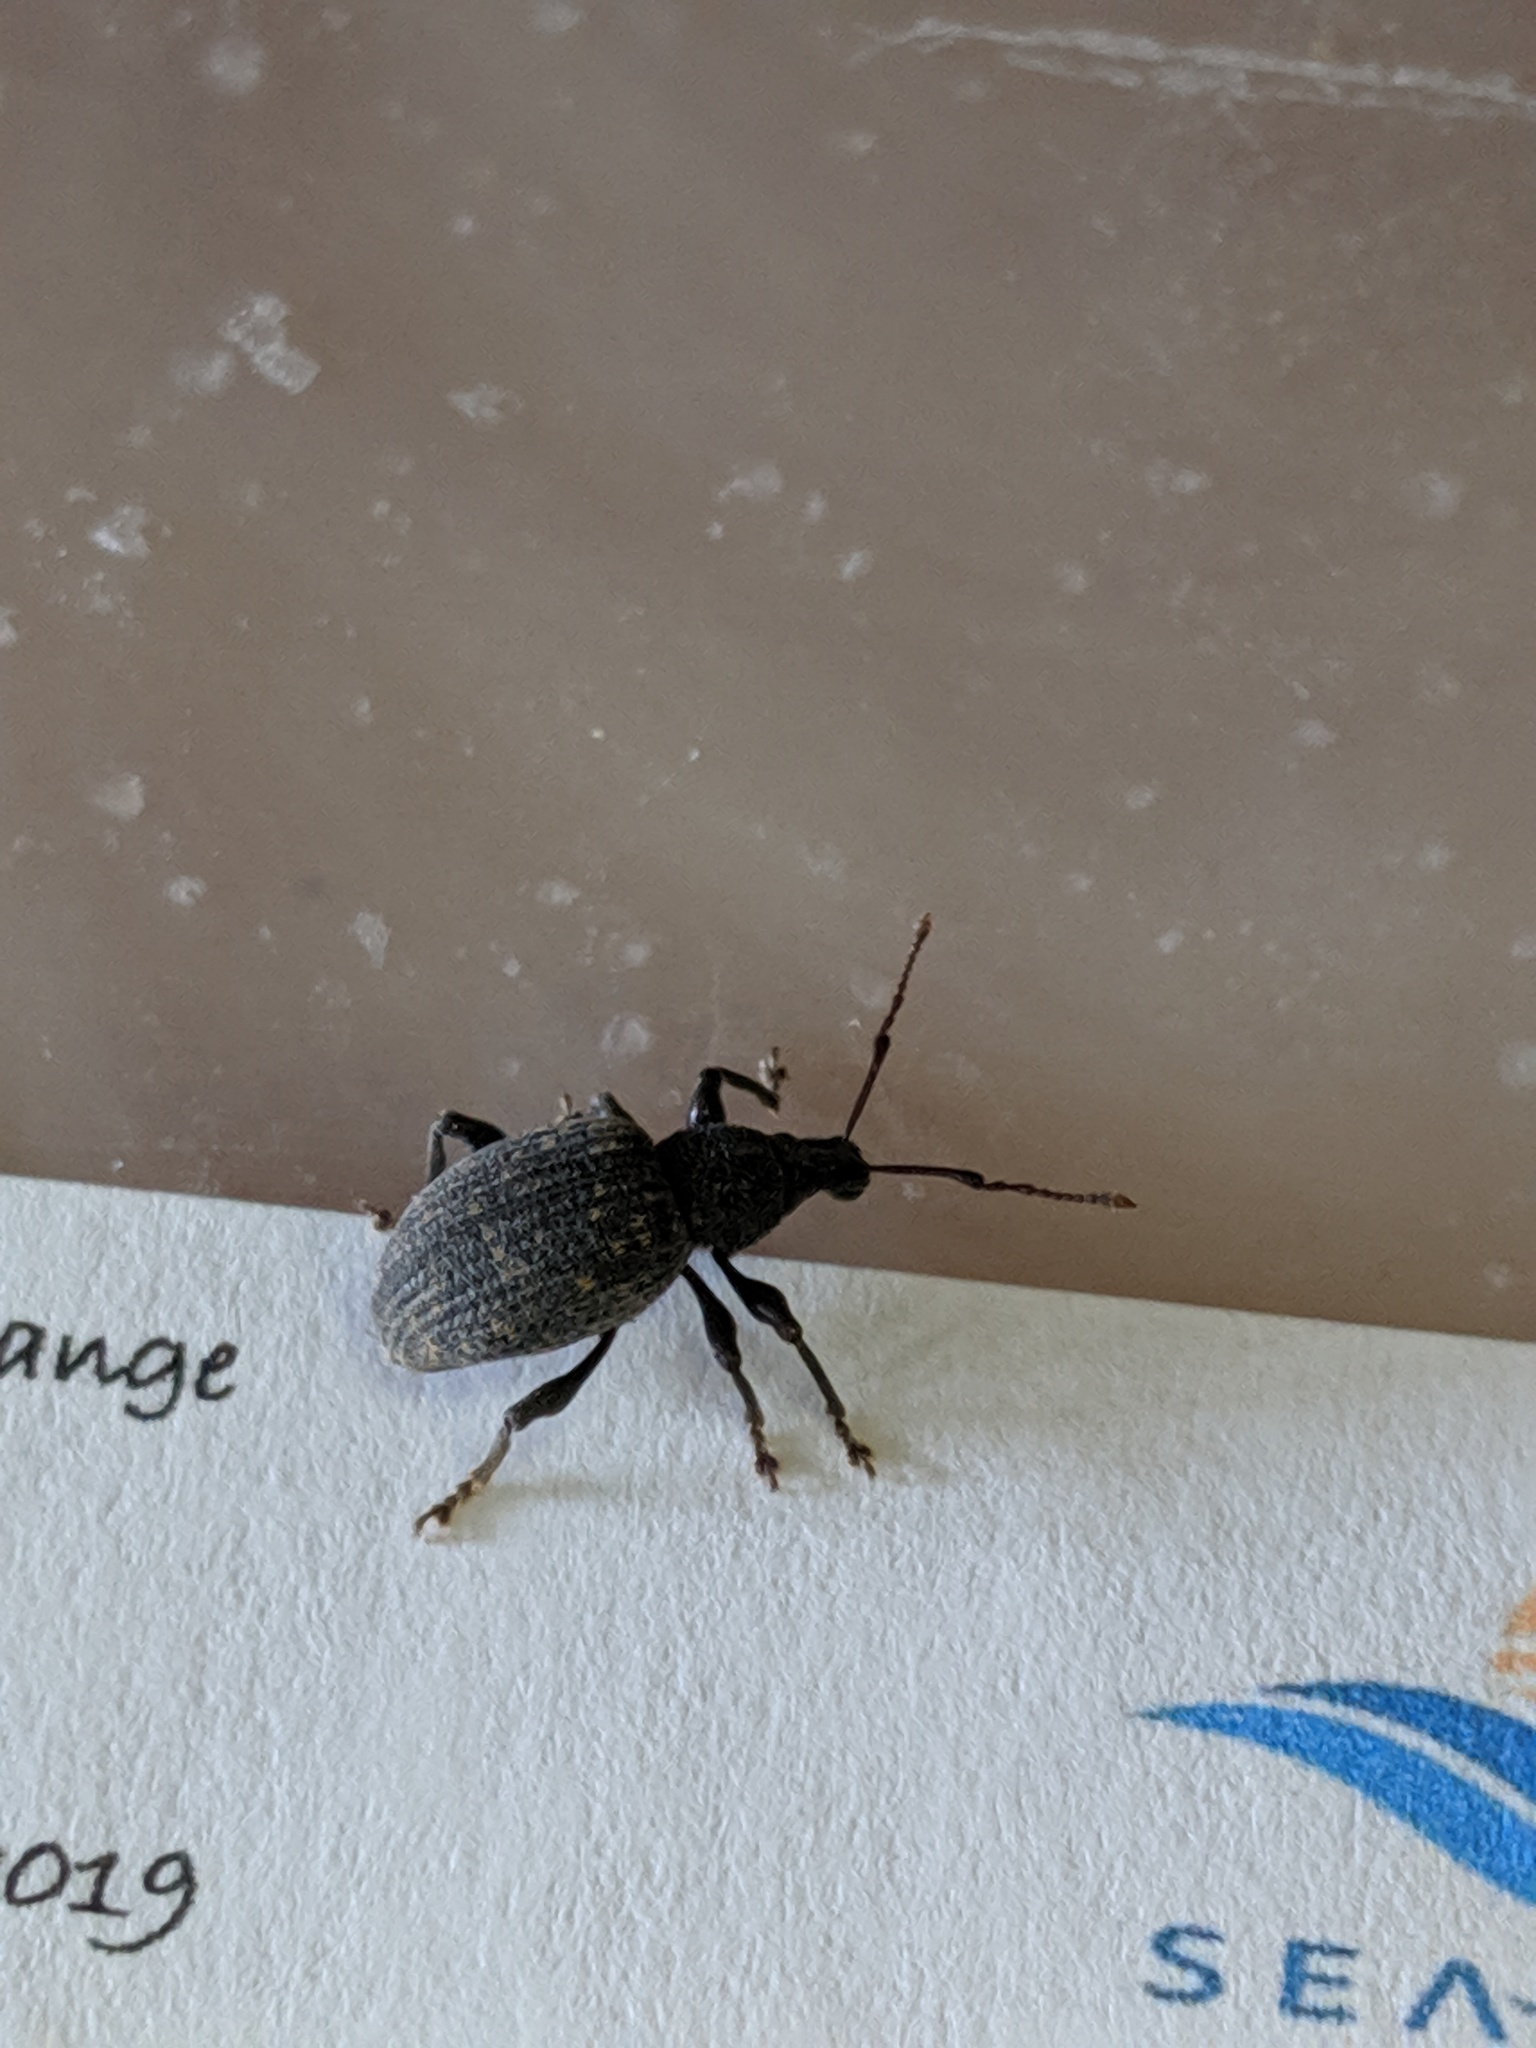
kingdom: Animalia
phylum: Arthropoda
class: Insecta
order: Coleoptera
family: Curculionidae
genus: Otiorhynchus
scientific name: Otiorhynchus sulcatus
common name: Black vine weevil
